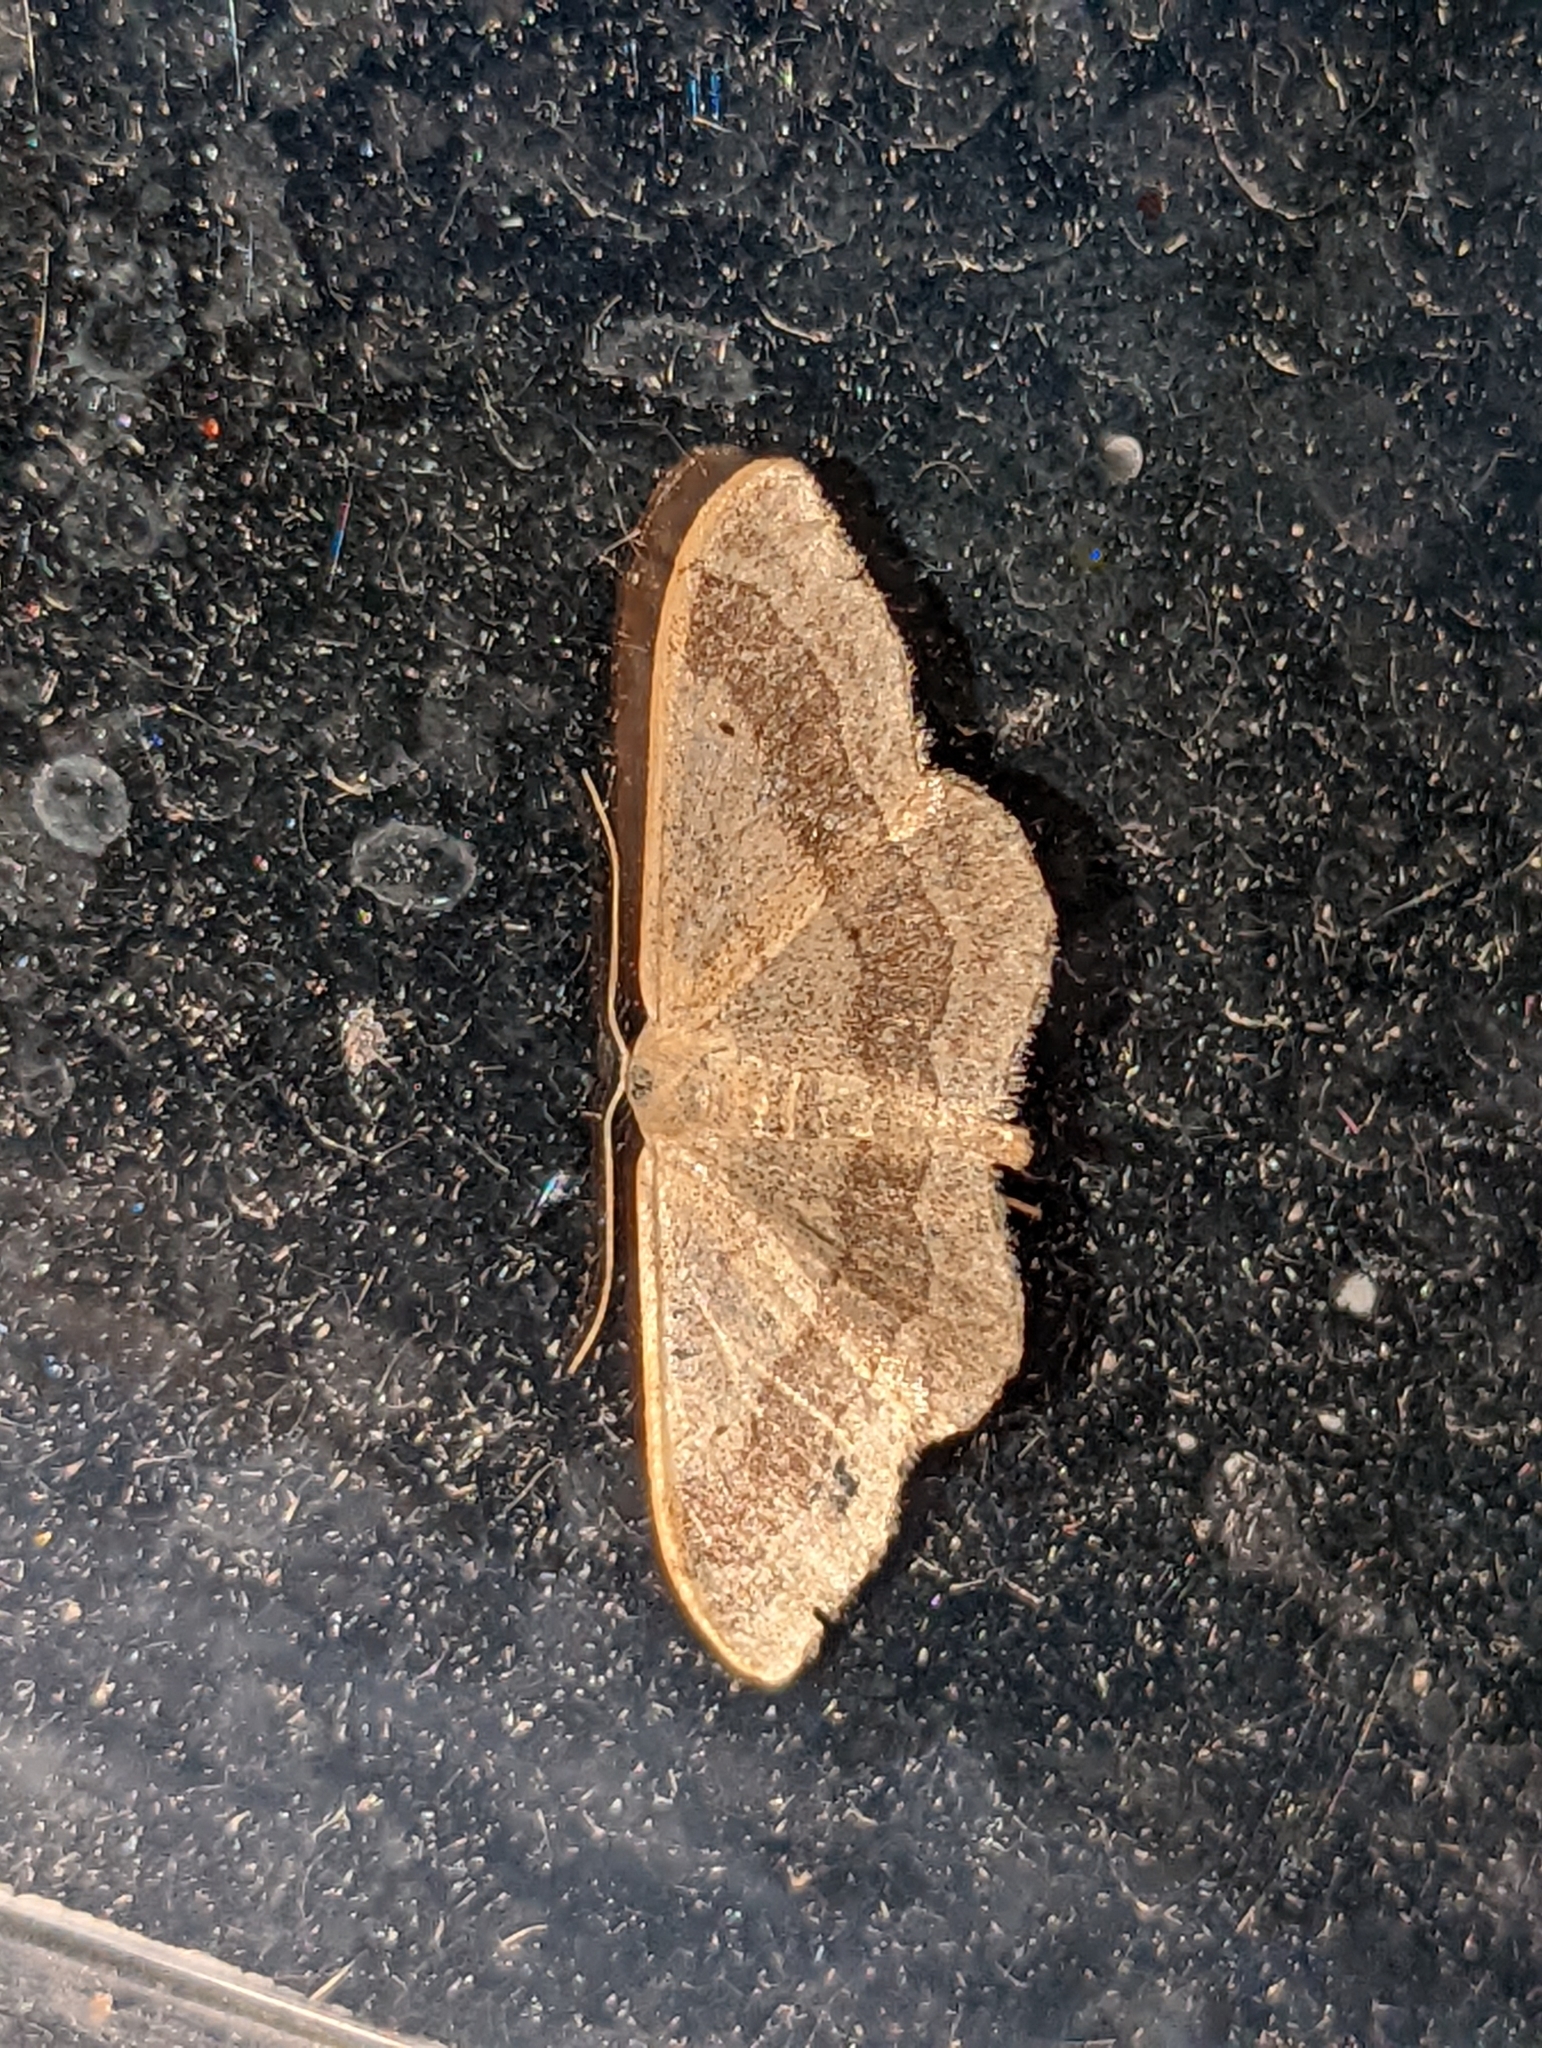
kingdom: Animalia
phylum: Arthropoda
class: Insecta
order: Lepidoptera
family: Geometridae
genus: Idaea
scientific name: Idaea aversata
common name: Riband wave
